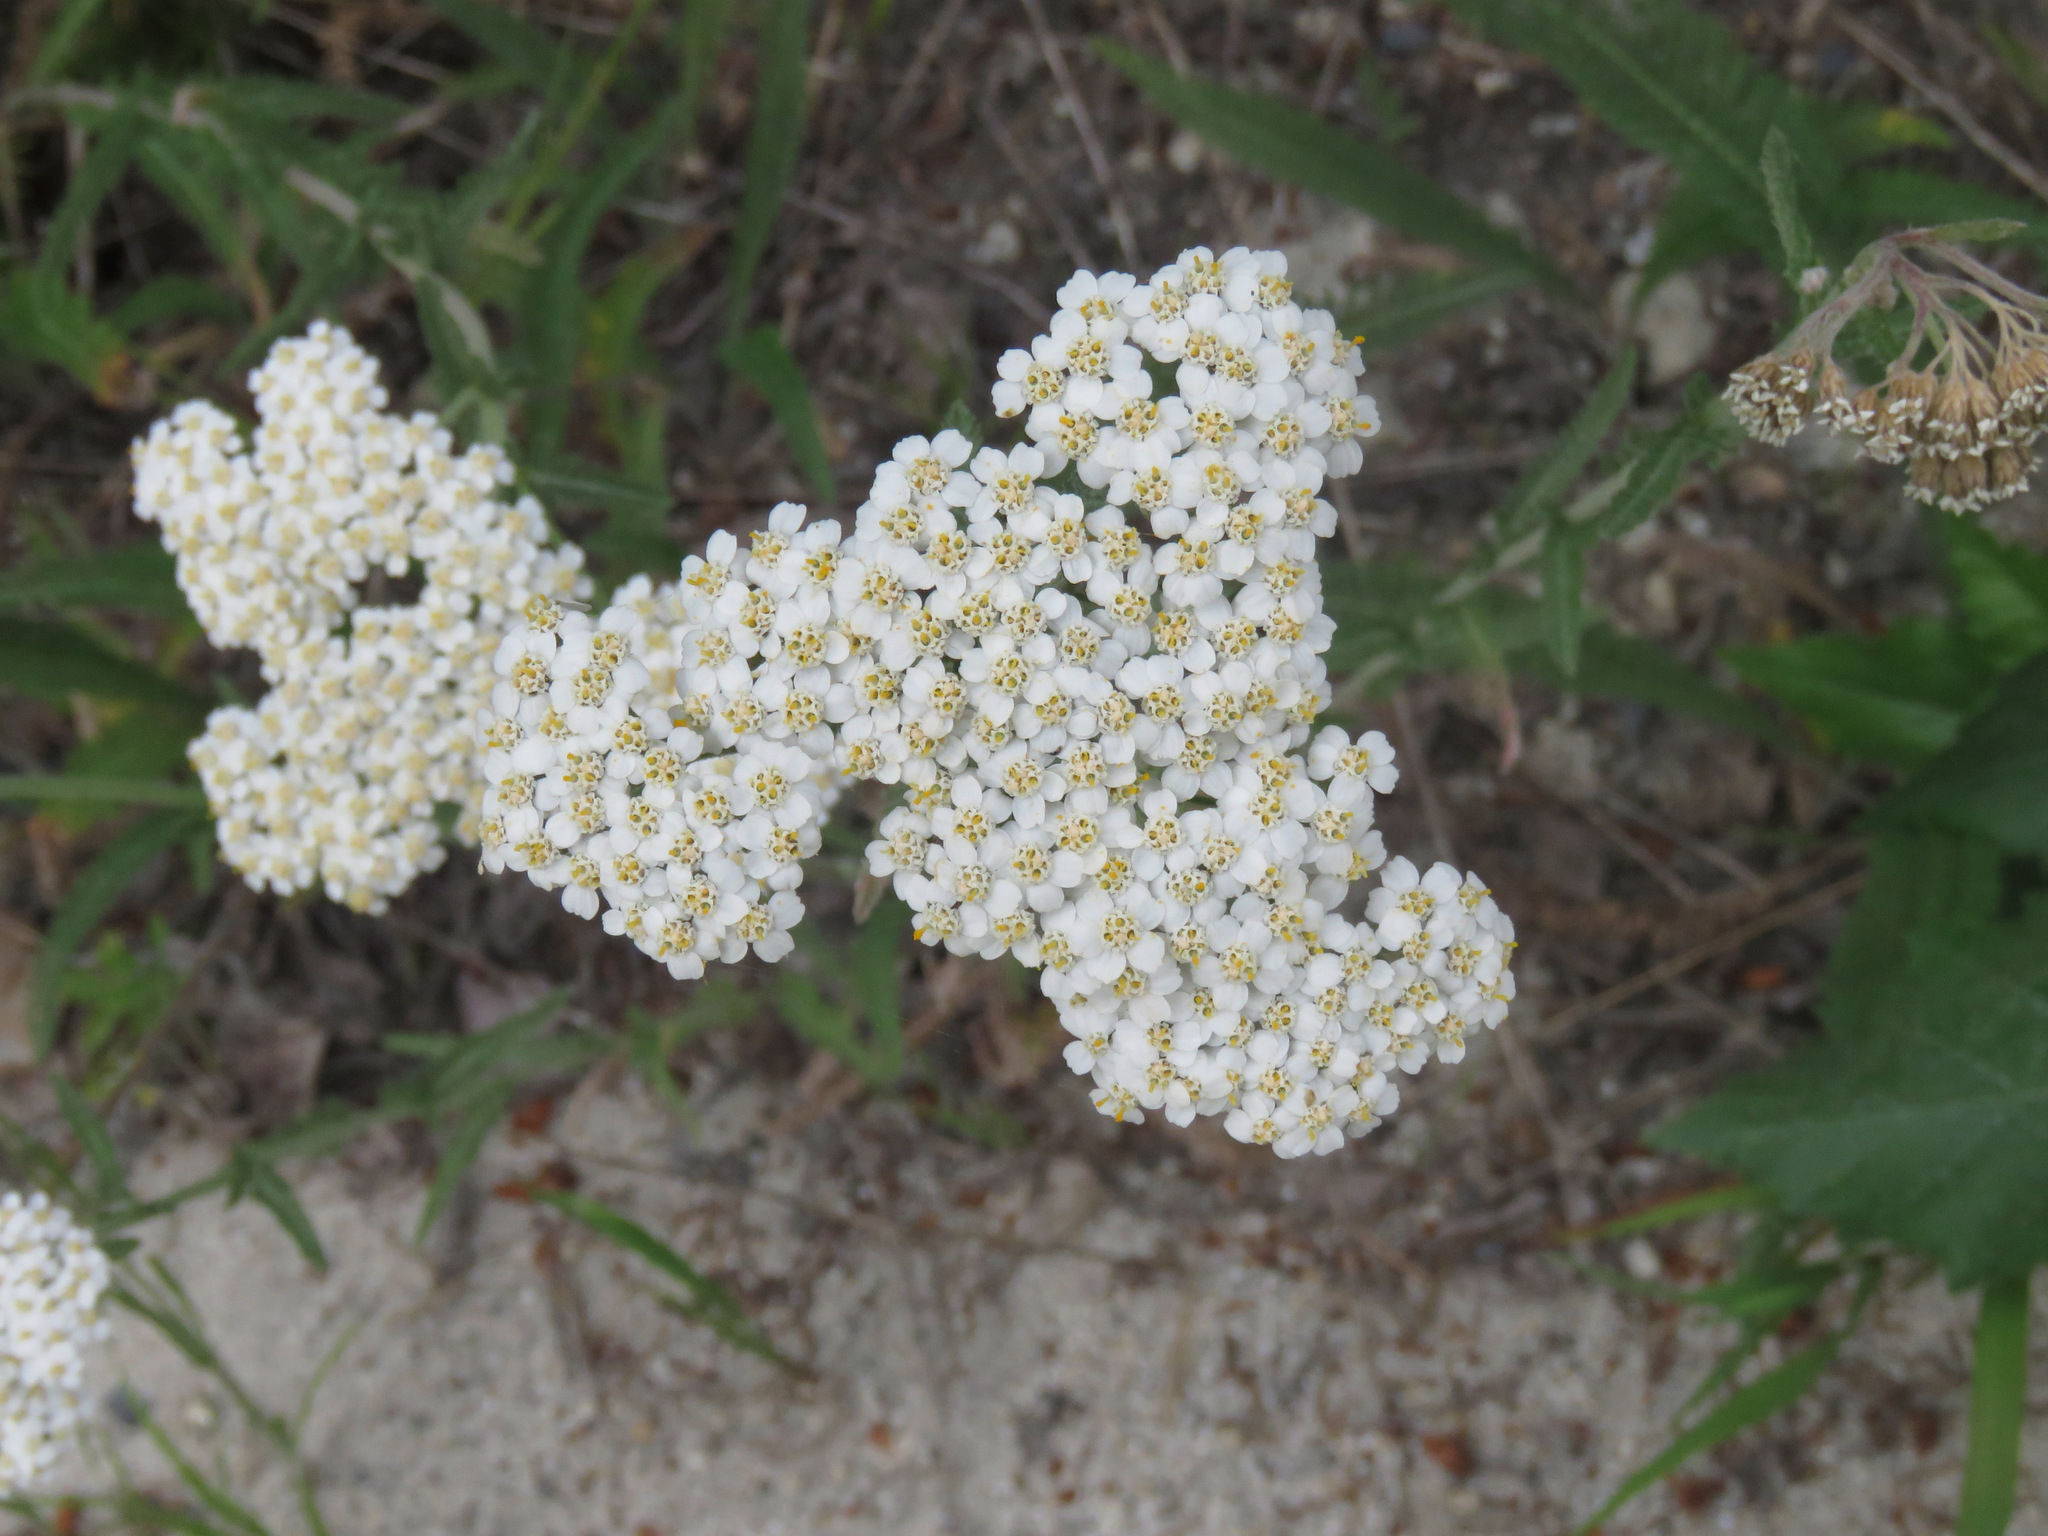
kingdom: Plantae
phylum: Tracheophyta
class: Magnoliopsida
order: Asterales
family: Asteraceae
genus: Achillea
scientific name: Achillea millefolium
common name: Yarrow
